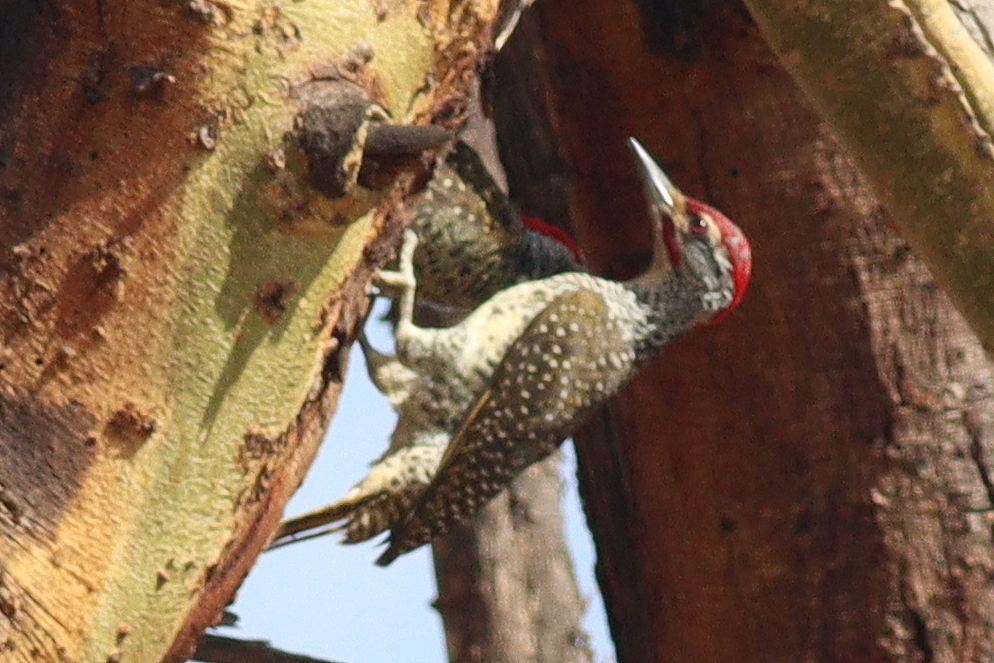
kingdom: Animalia
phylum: Chordata
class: Aves
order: Piciformes
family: Picidae
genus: Campethera
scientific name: Campethera nubica
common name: Nubian woodpecker
